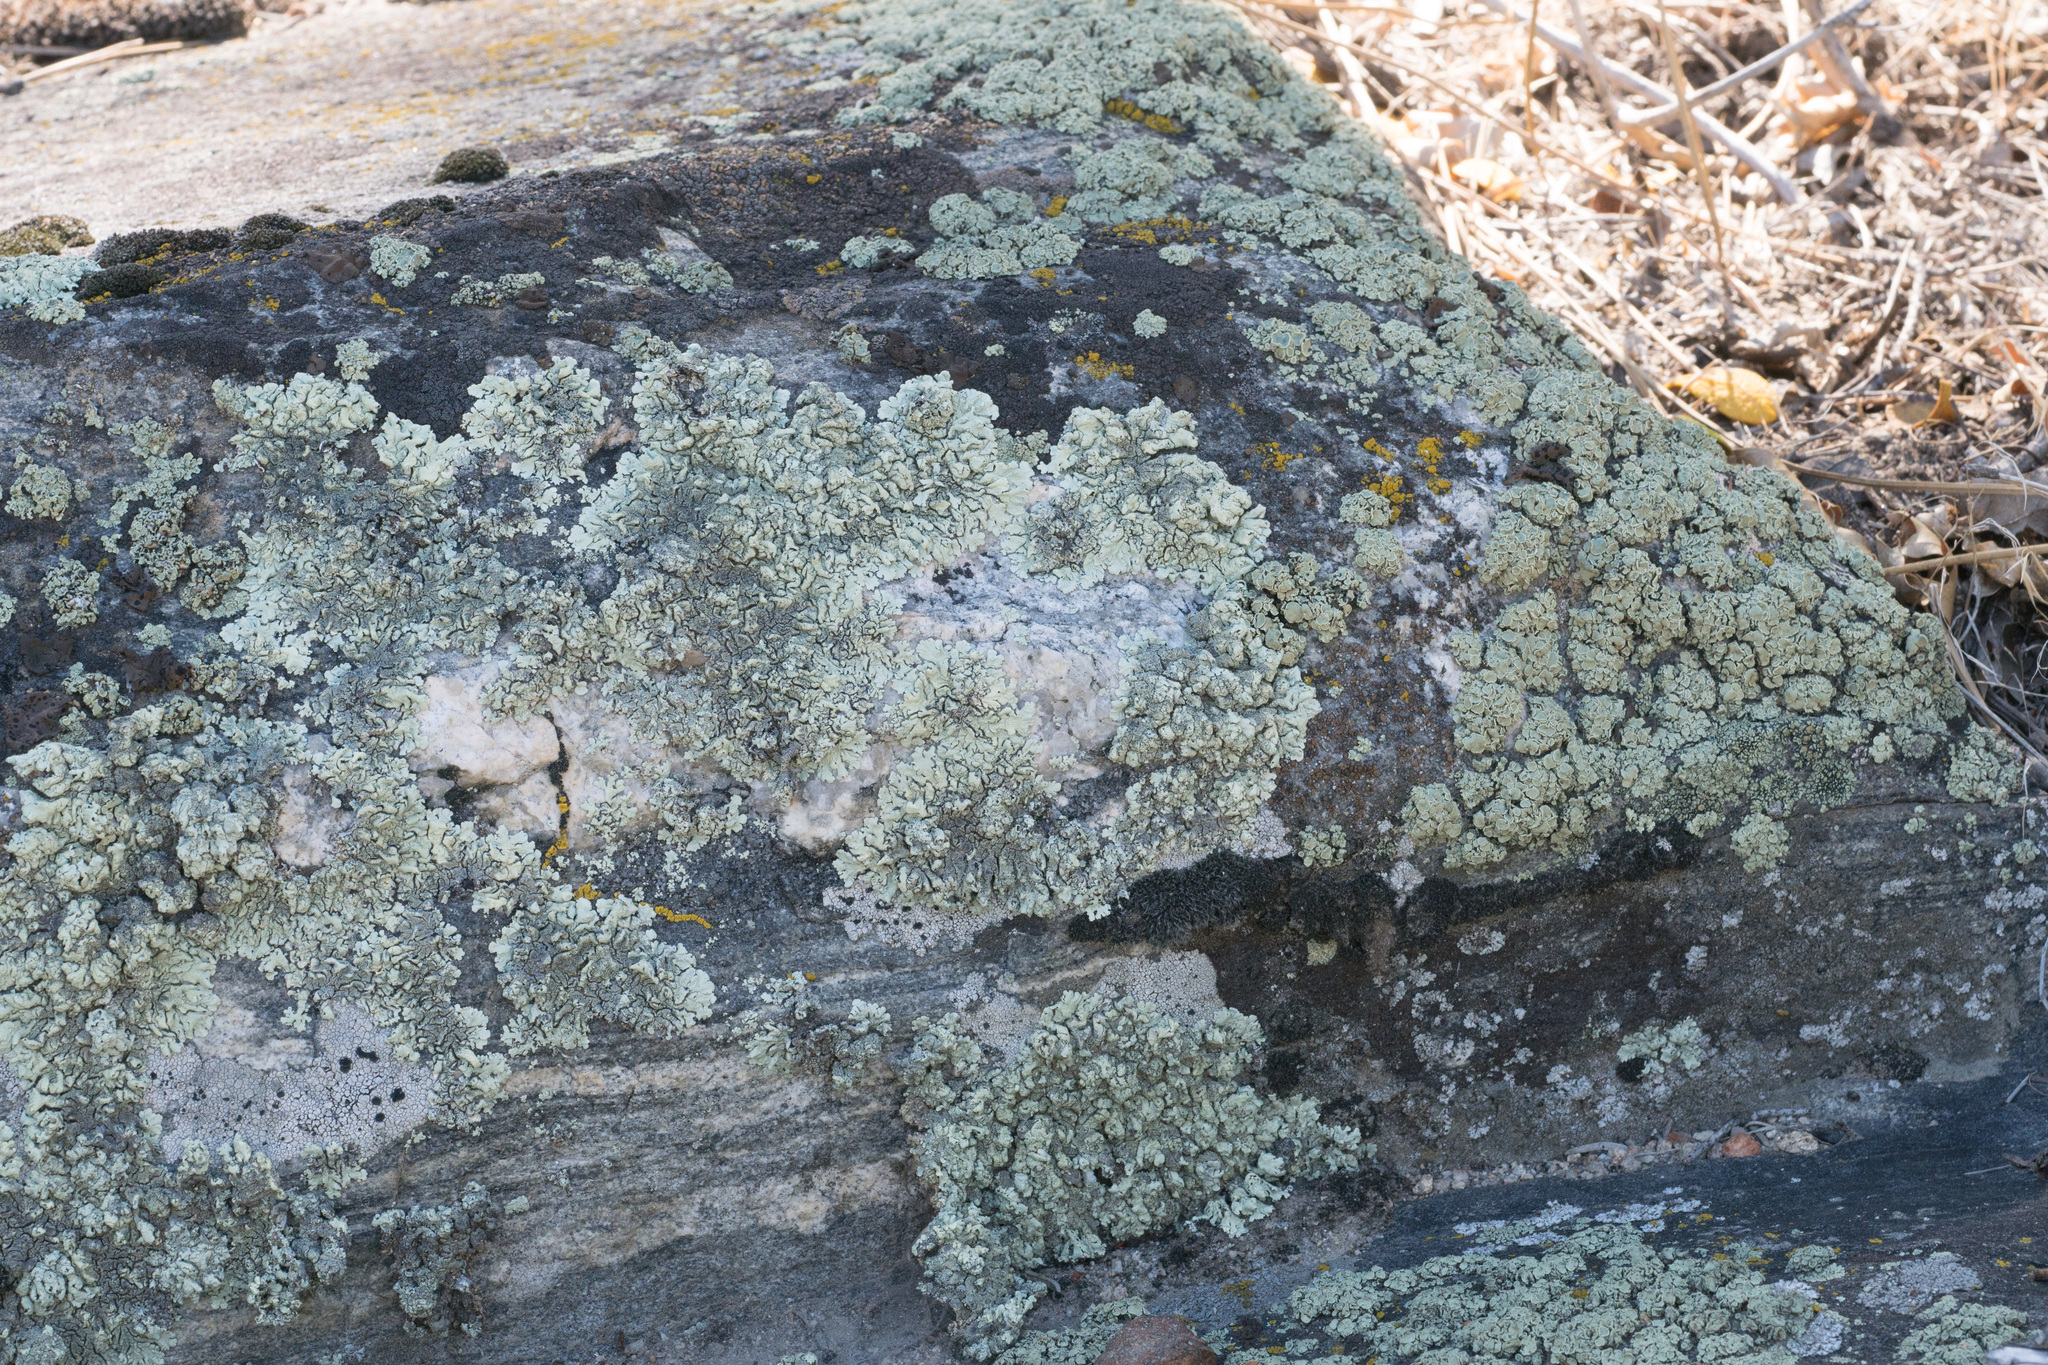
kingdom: Fungi
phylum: Ascomycota
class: Lecanoromycetes
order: Umbilicariales
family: Umbilicariaceae
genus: Umbilicaria
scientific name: Umbilicaria phaea
